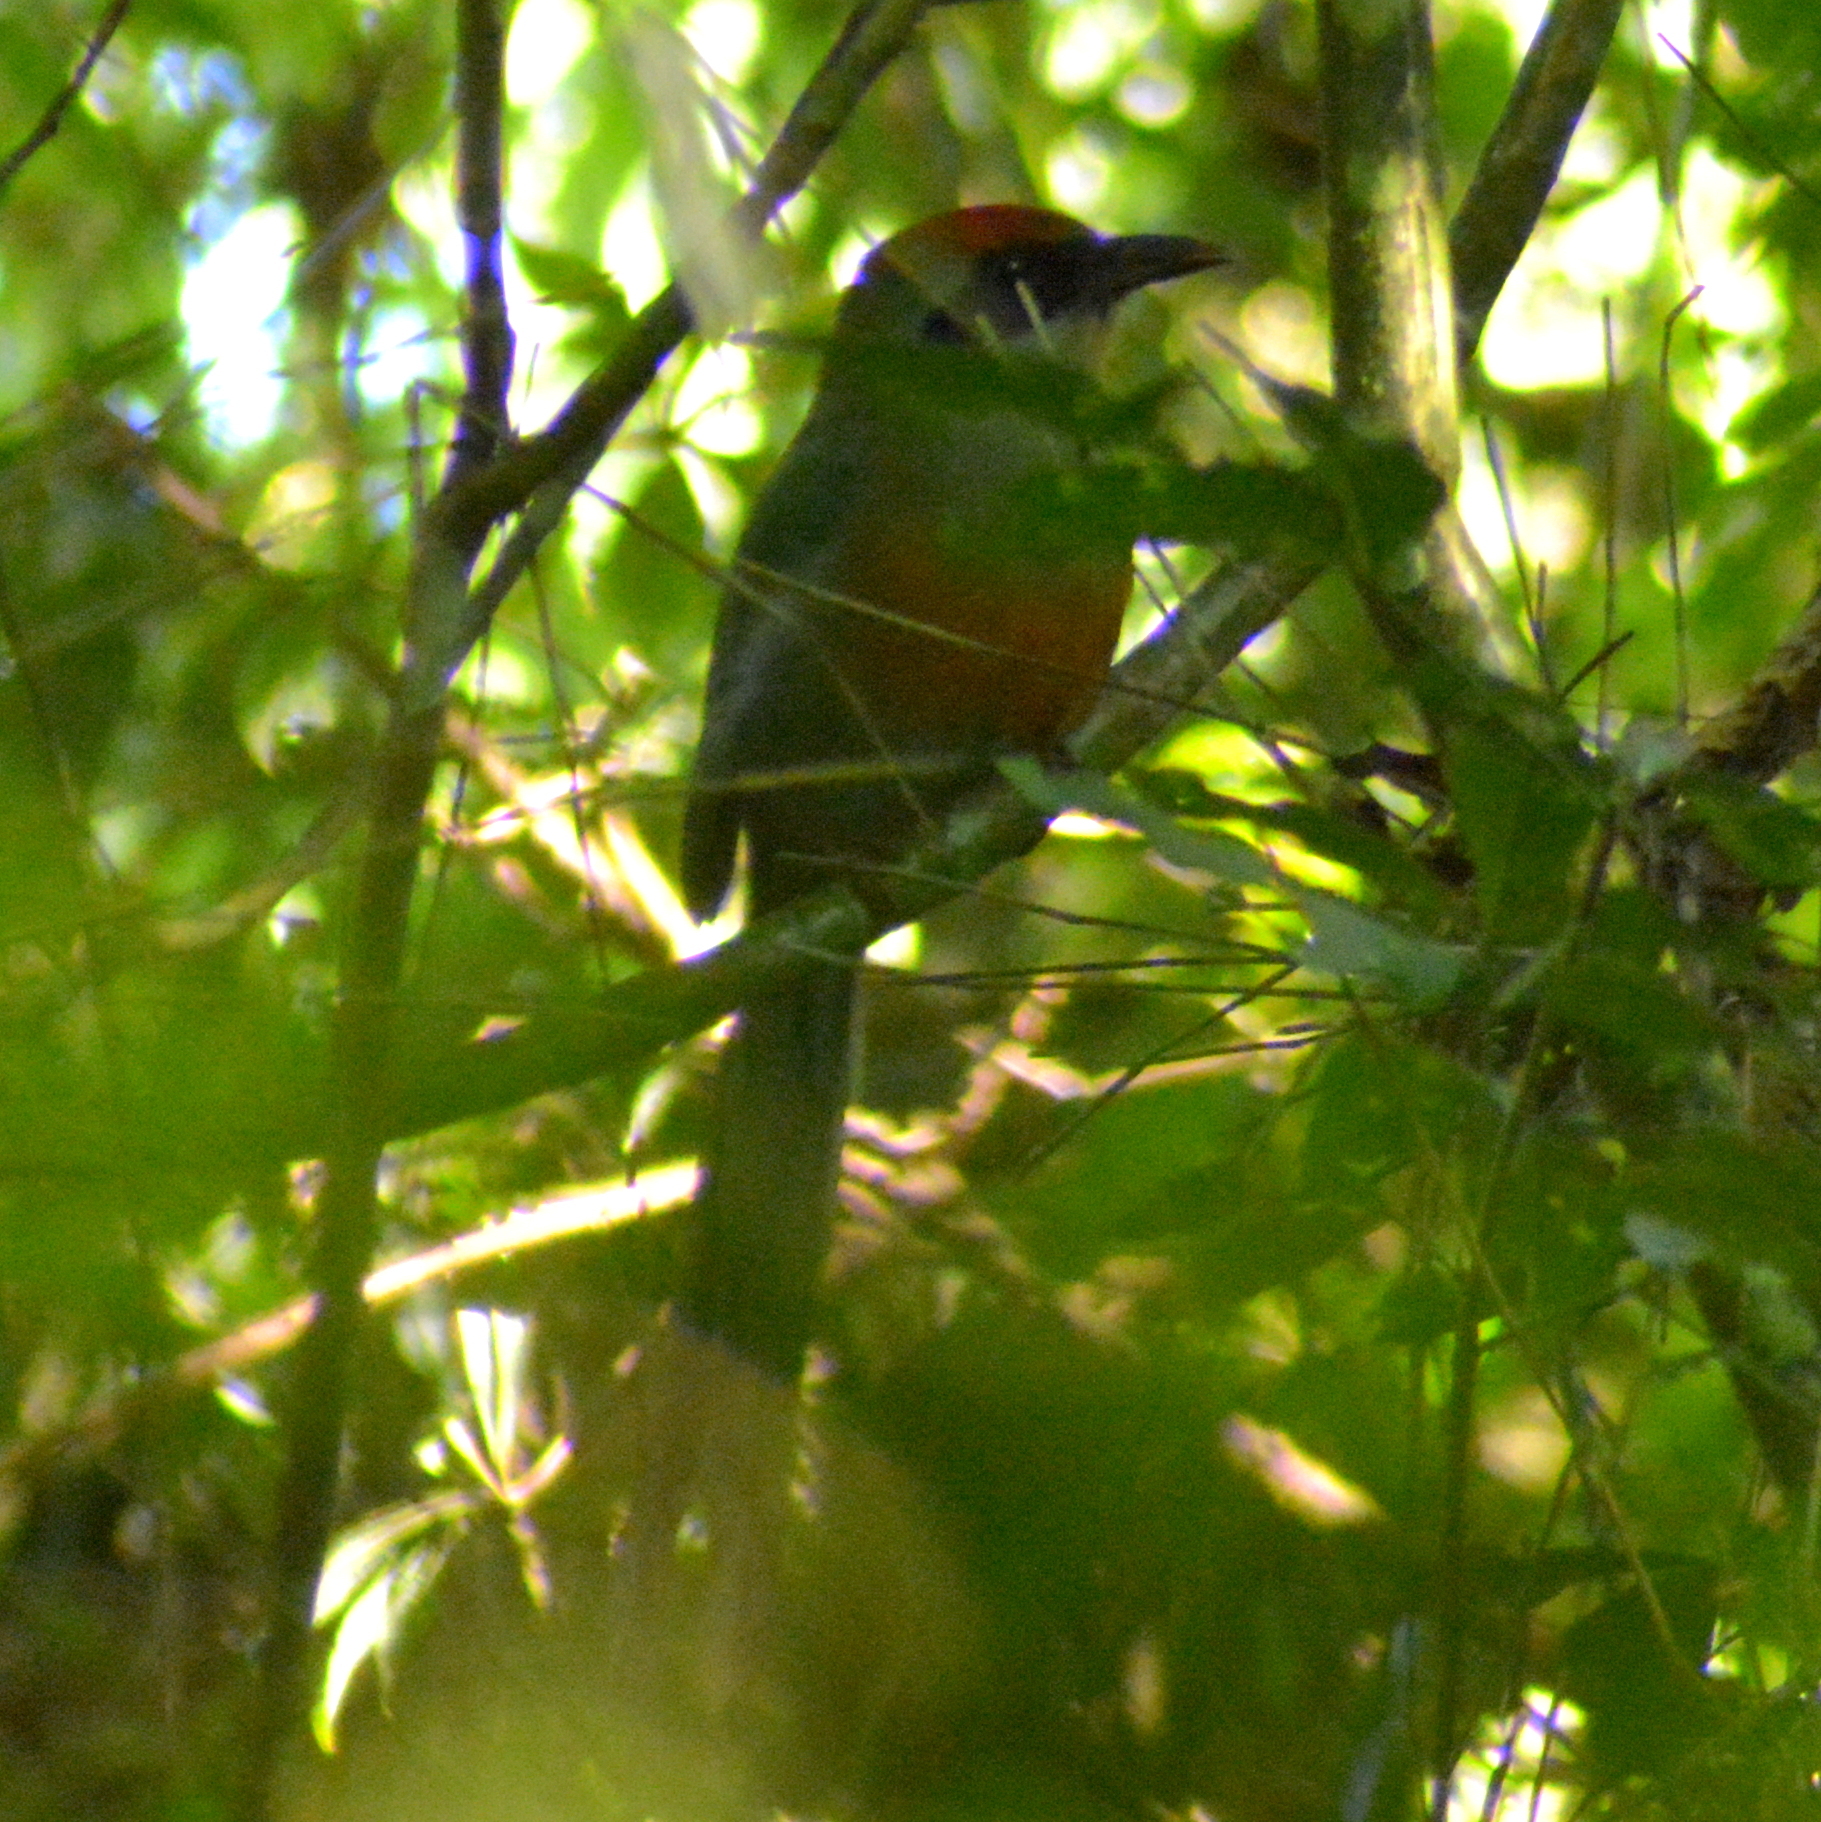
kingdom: Animalia
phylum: Chordata
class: Aves
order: Coraciiformes
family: Momotidae
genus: Baryphthengus
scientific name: Baryphthengus ruficapillus
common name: Rufous-capped motmot
